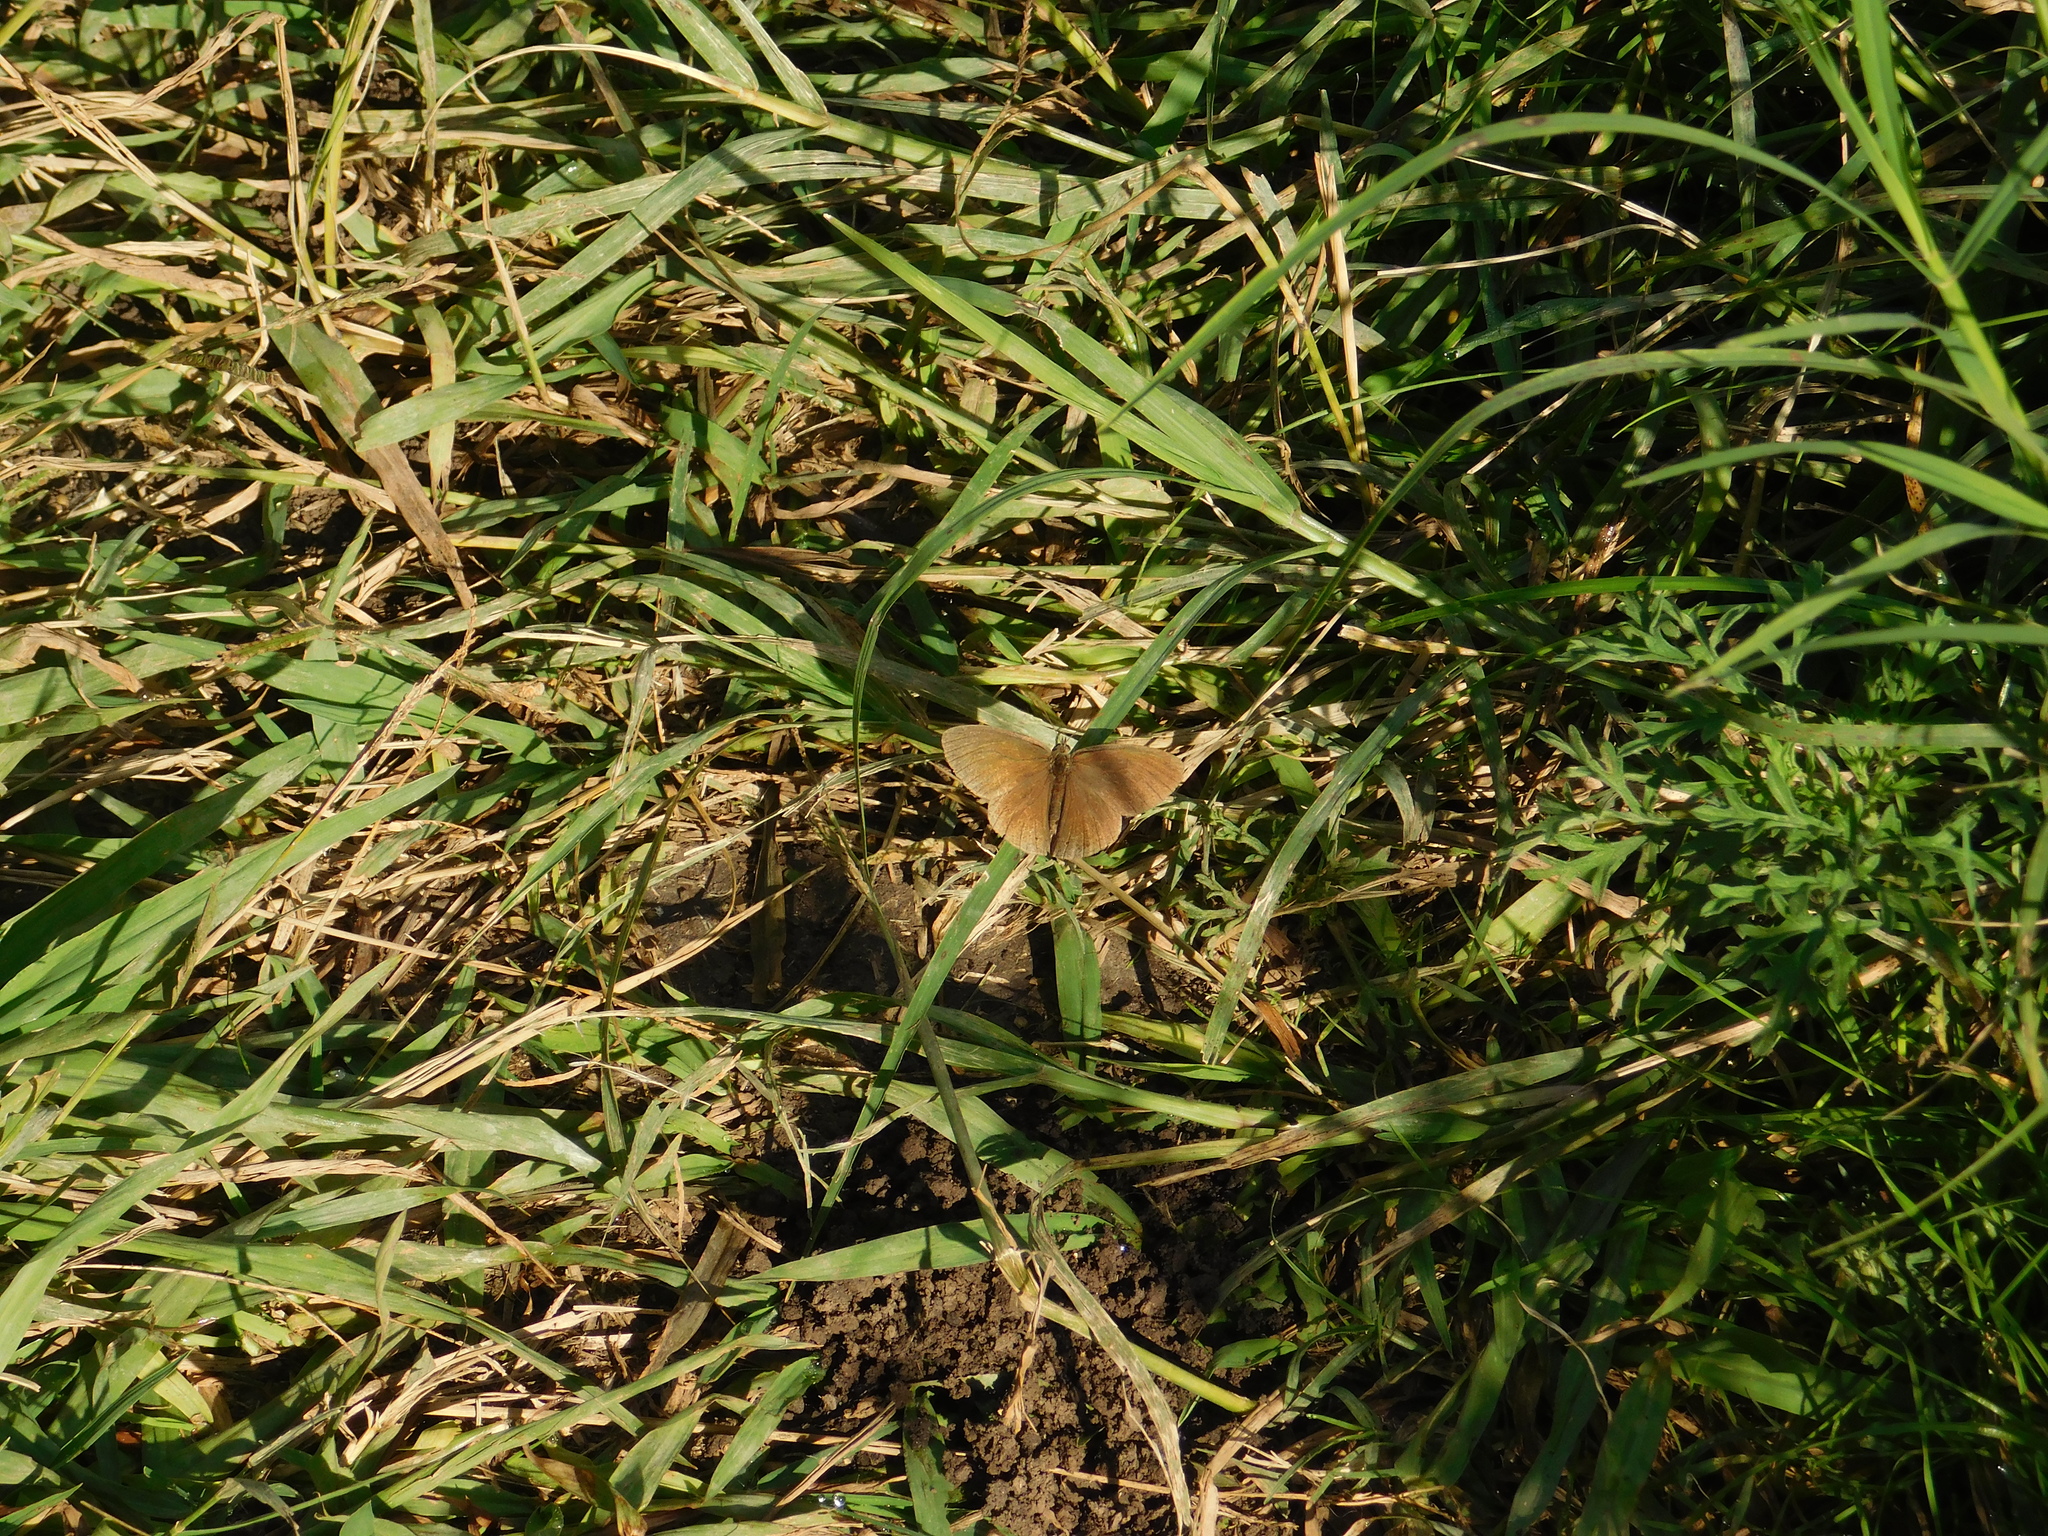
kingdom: Animalia
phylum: Arthropoda
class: Insecta
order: Lepidoptera
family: Nymphalidae
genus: Euptychia
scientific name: Euptychia
